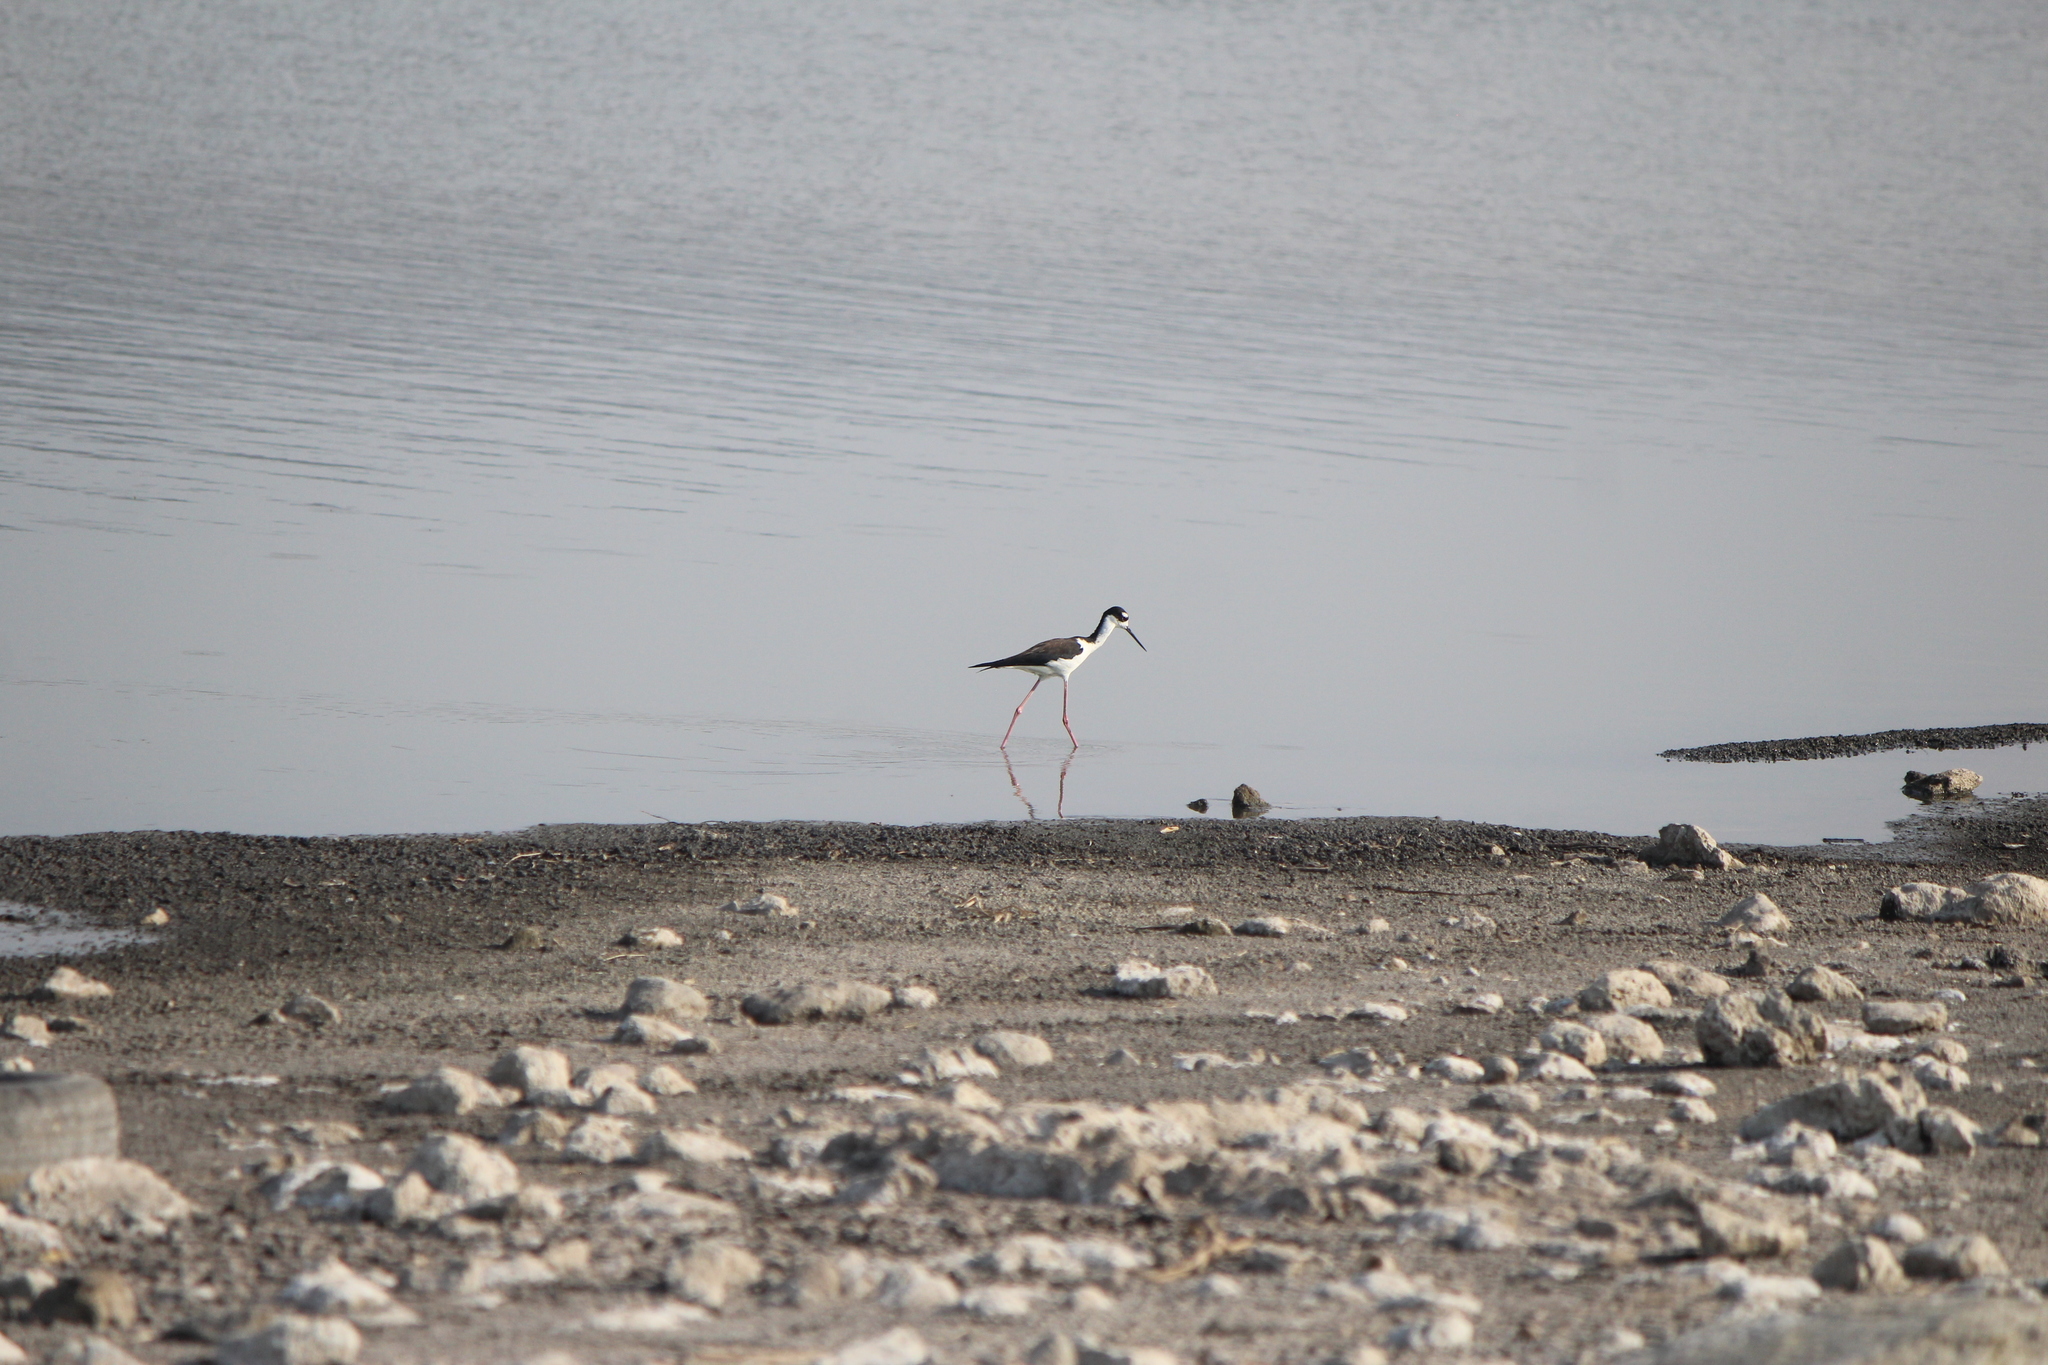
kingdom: Animalia
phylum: Chordata
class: Aves
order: Charadriiformes
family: Recurvirostridae
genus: Himantopus
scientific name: Himantopus mexicanus
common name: Black-necked stilt
